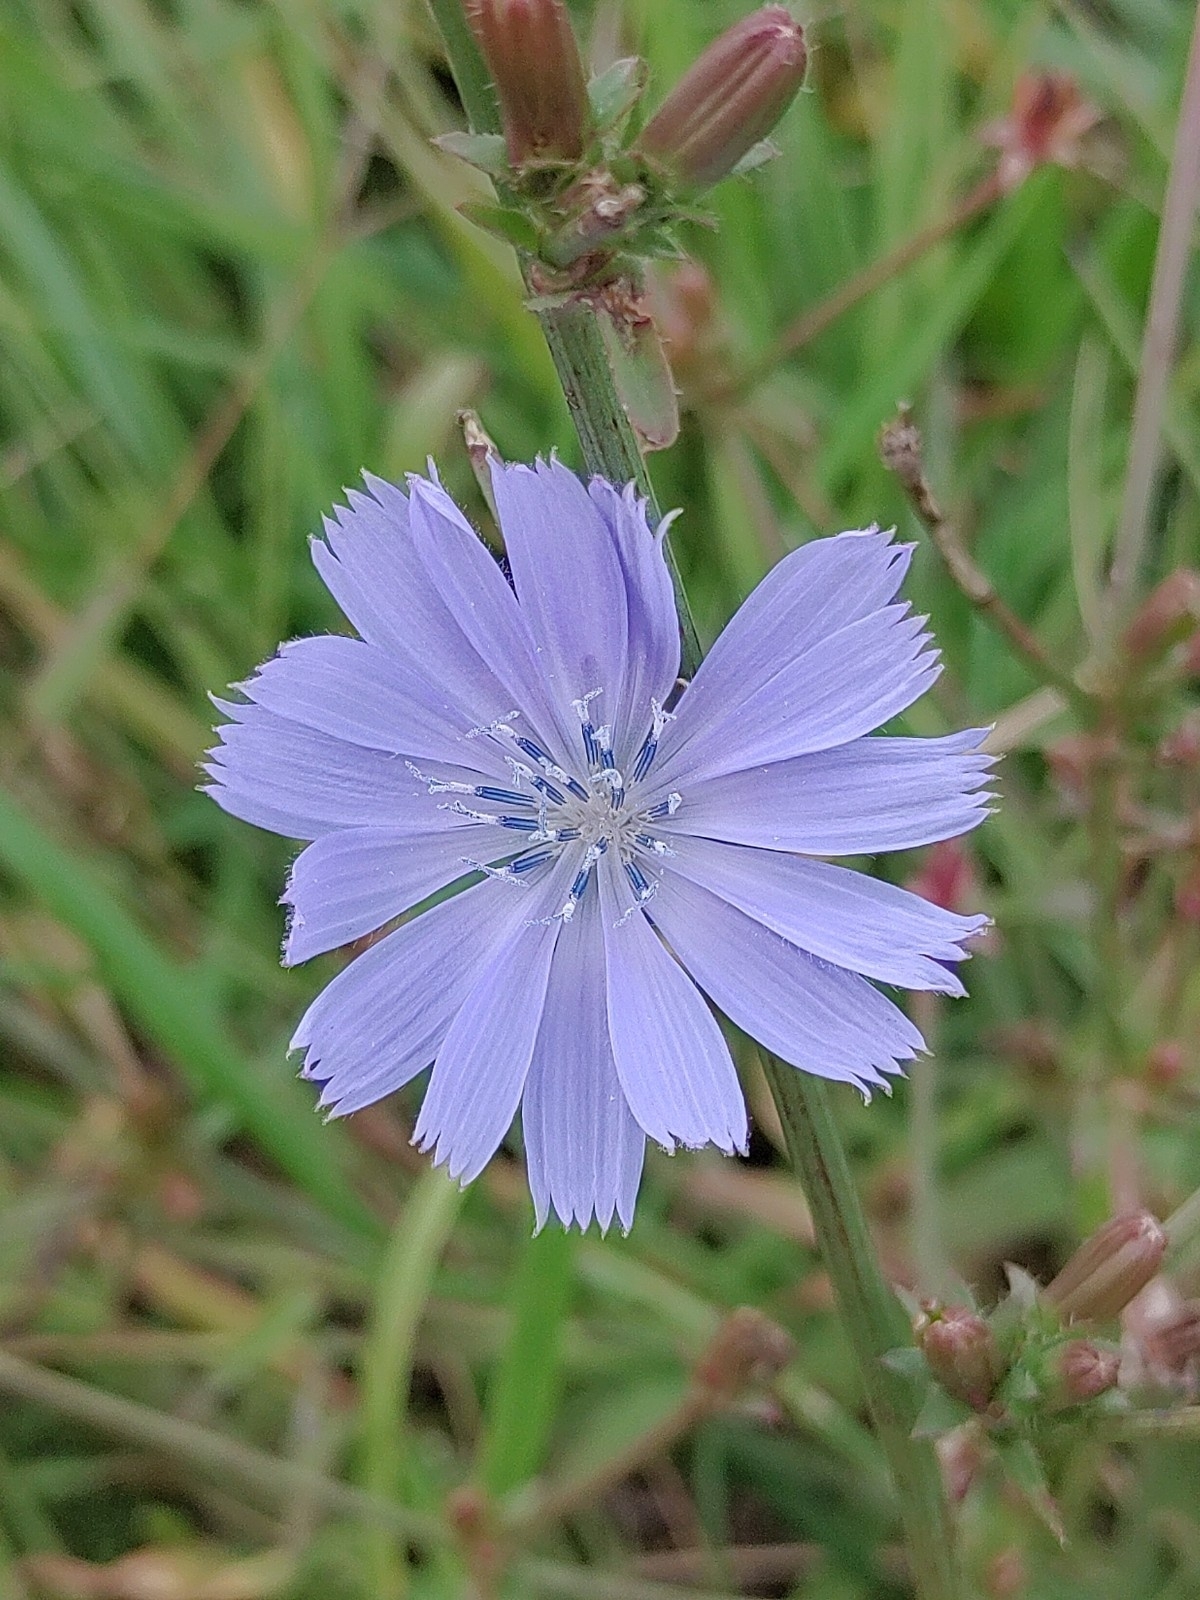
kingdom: Plantae
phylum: Tracheophyta
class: Magnoliopsida
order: Asterales
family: Asteraceae
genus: Cichorium
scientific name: Cichorium intybus
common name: Chicory
